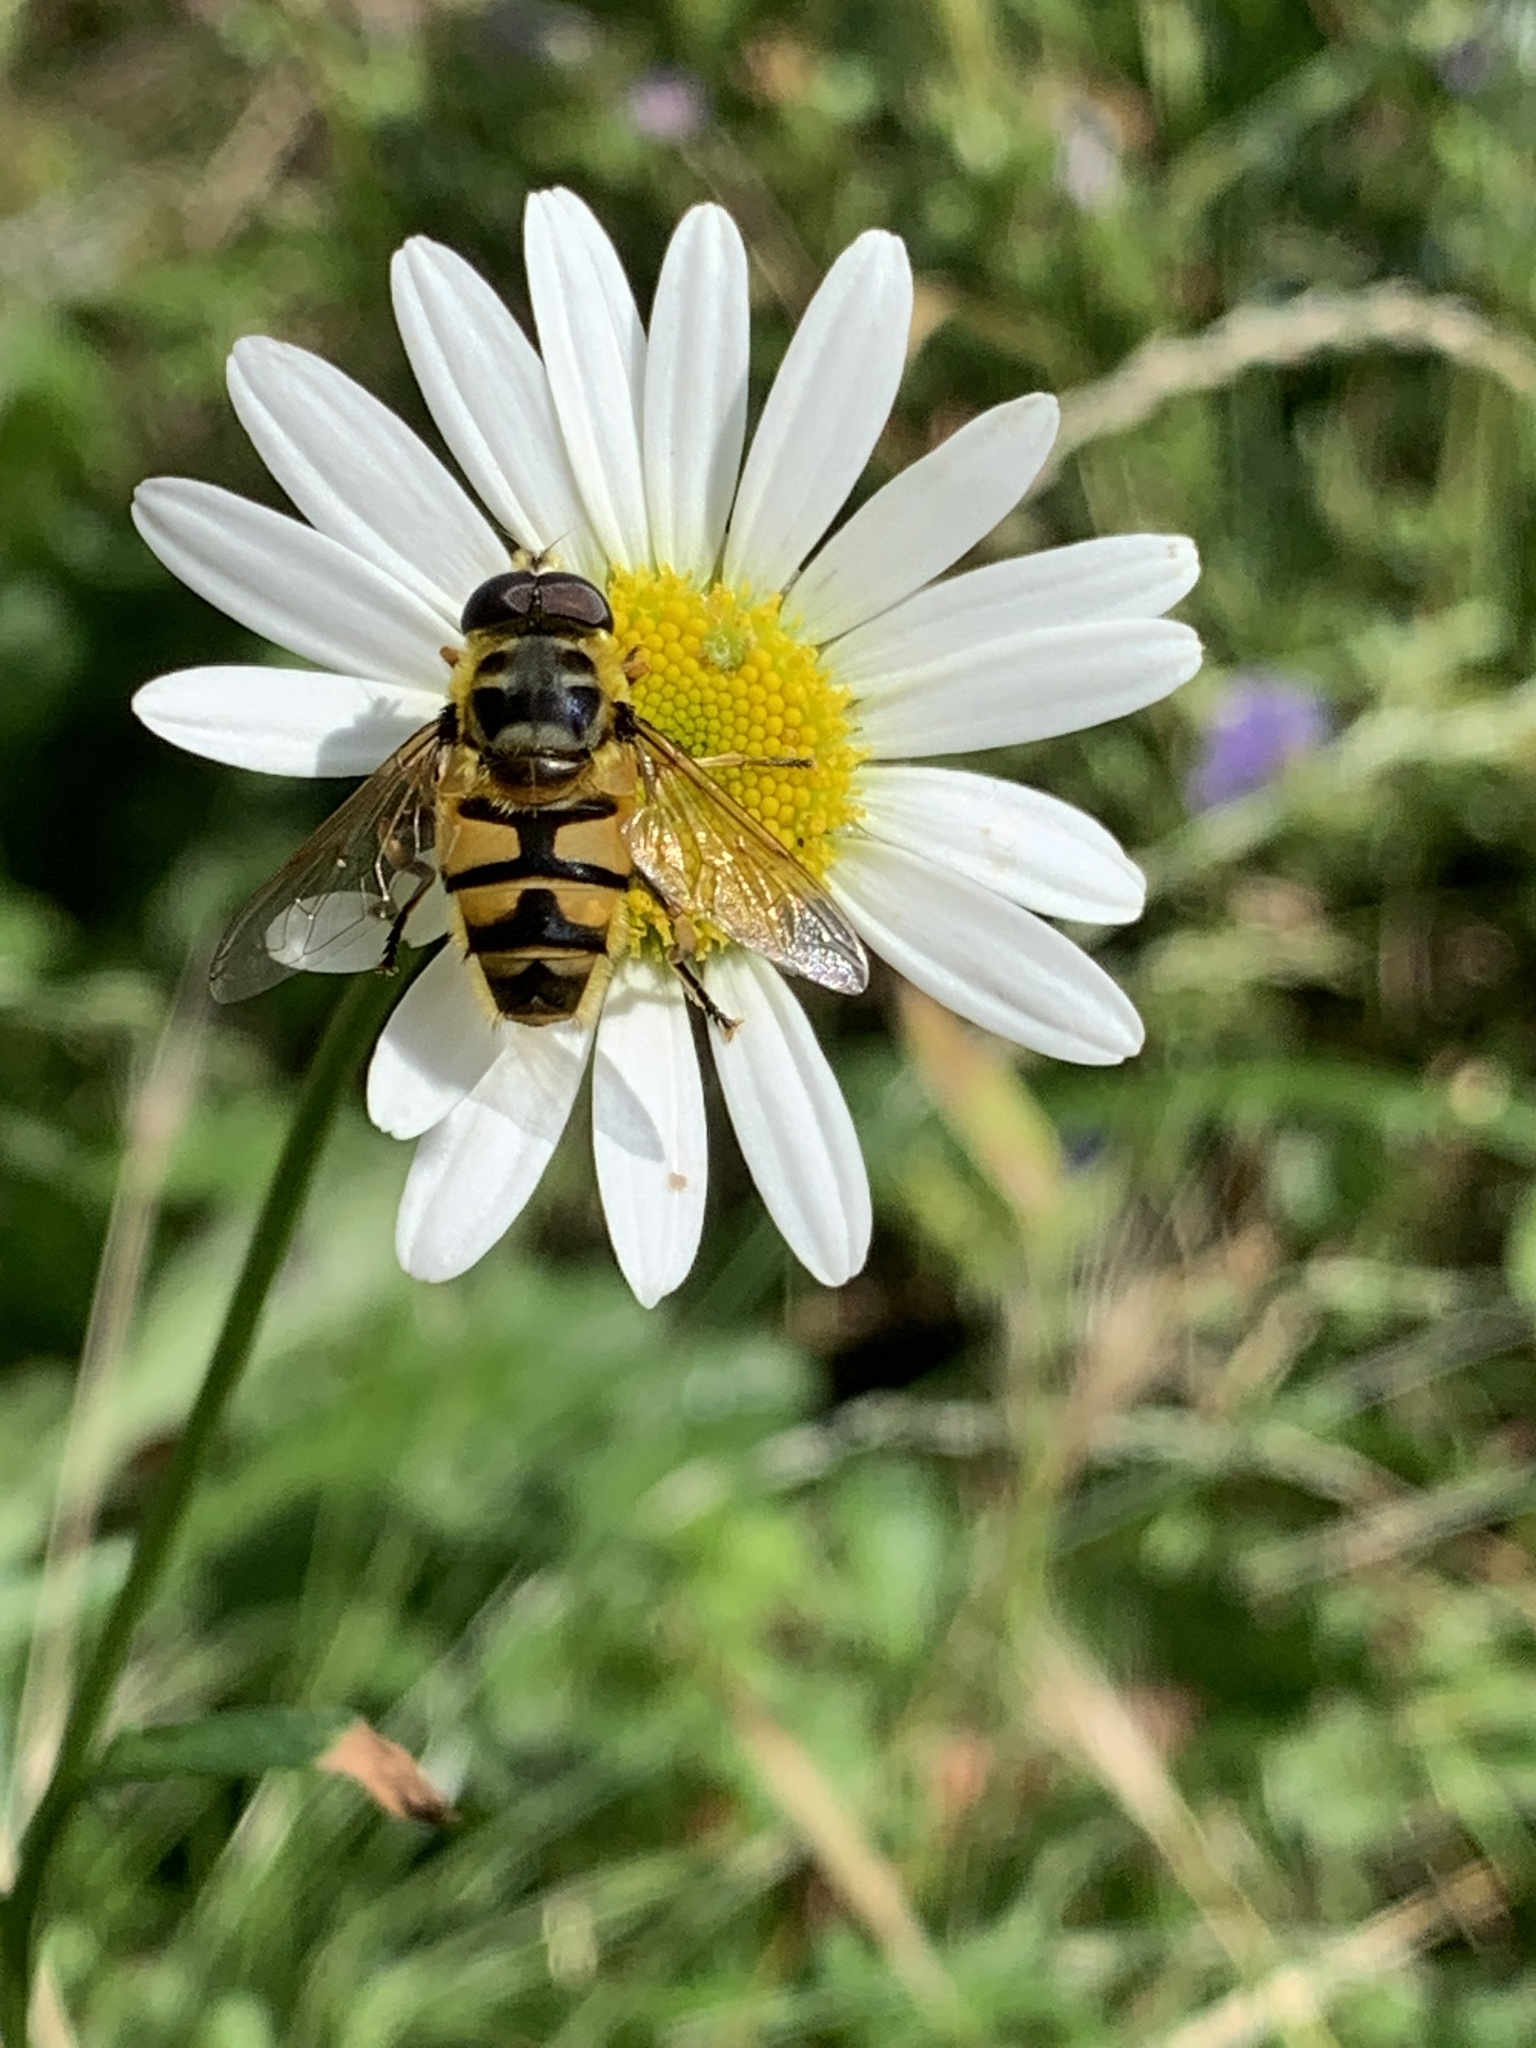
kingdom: Animalia
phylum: Arthropoda
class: Insecta
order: Diptera
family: Syrphidae
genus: Myathropa
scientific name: Myathropa florea
